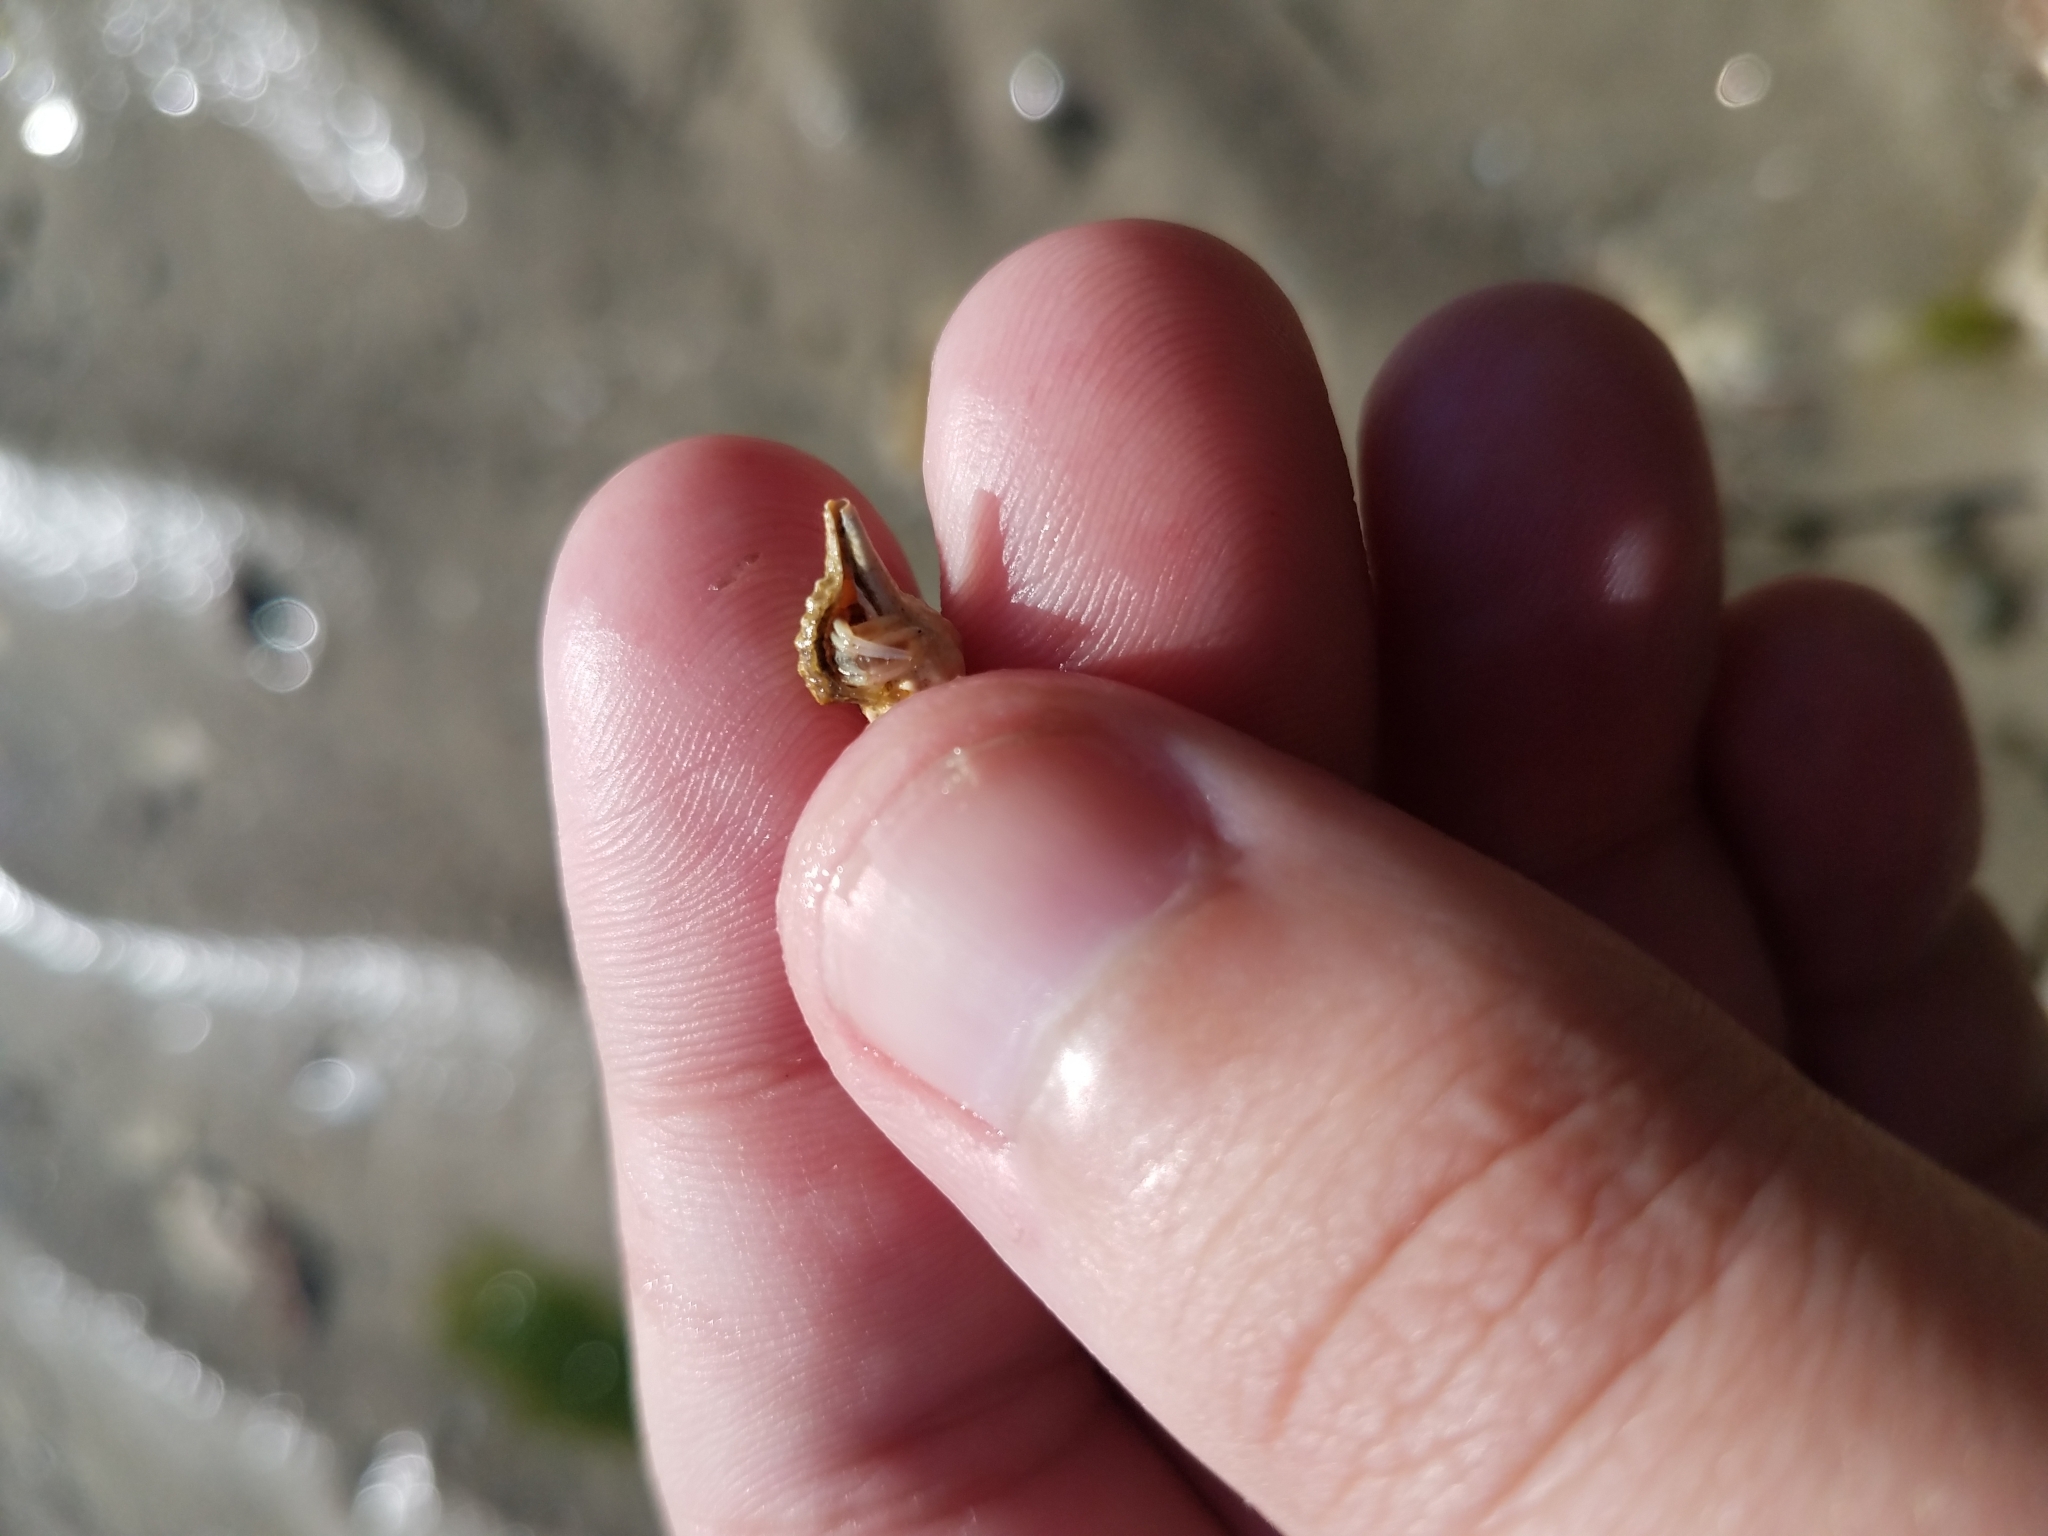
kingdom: Animalia
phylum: Arthropoda
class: Malacostraca
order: Decapoda
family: Paguridae
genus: Pagurus
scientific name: Pagurus longicarpus
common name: Long-armed hermit crab
